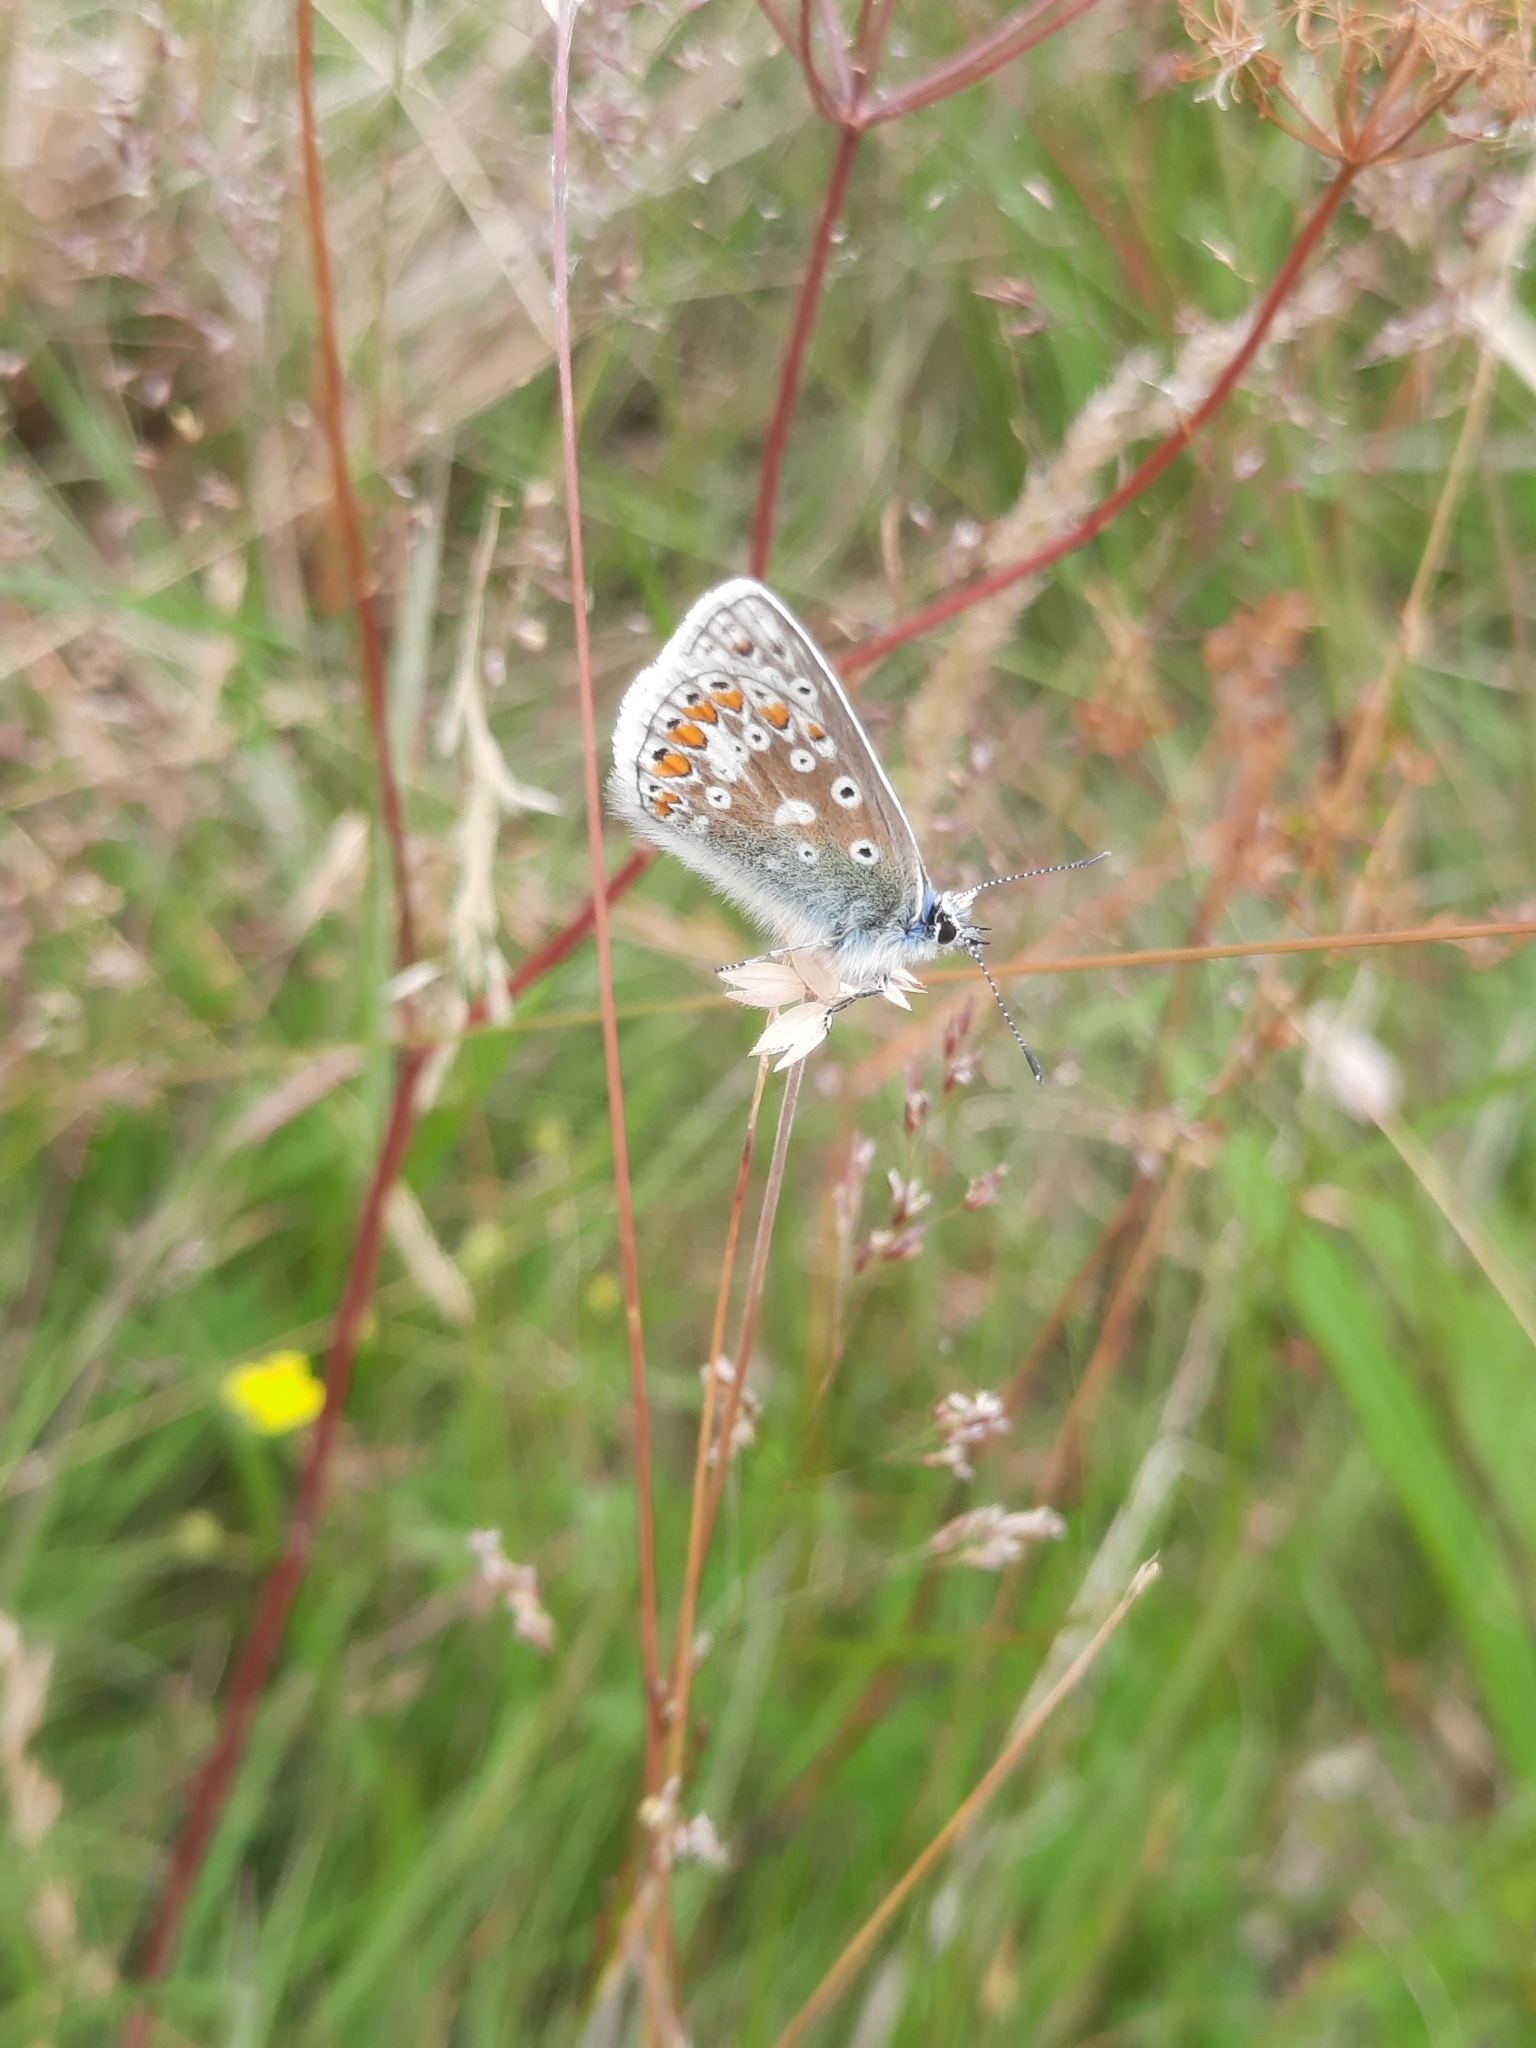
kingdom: Animalia
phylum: Arthropoda
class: Insecta
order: Lepidoptera
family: Lycaenidae
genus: Polyommatus
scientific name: Polyommatus icarus
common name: Common blue
